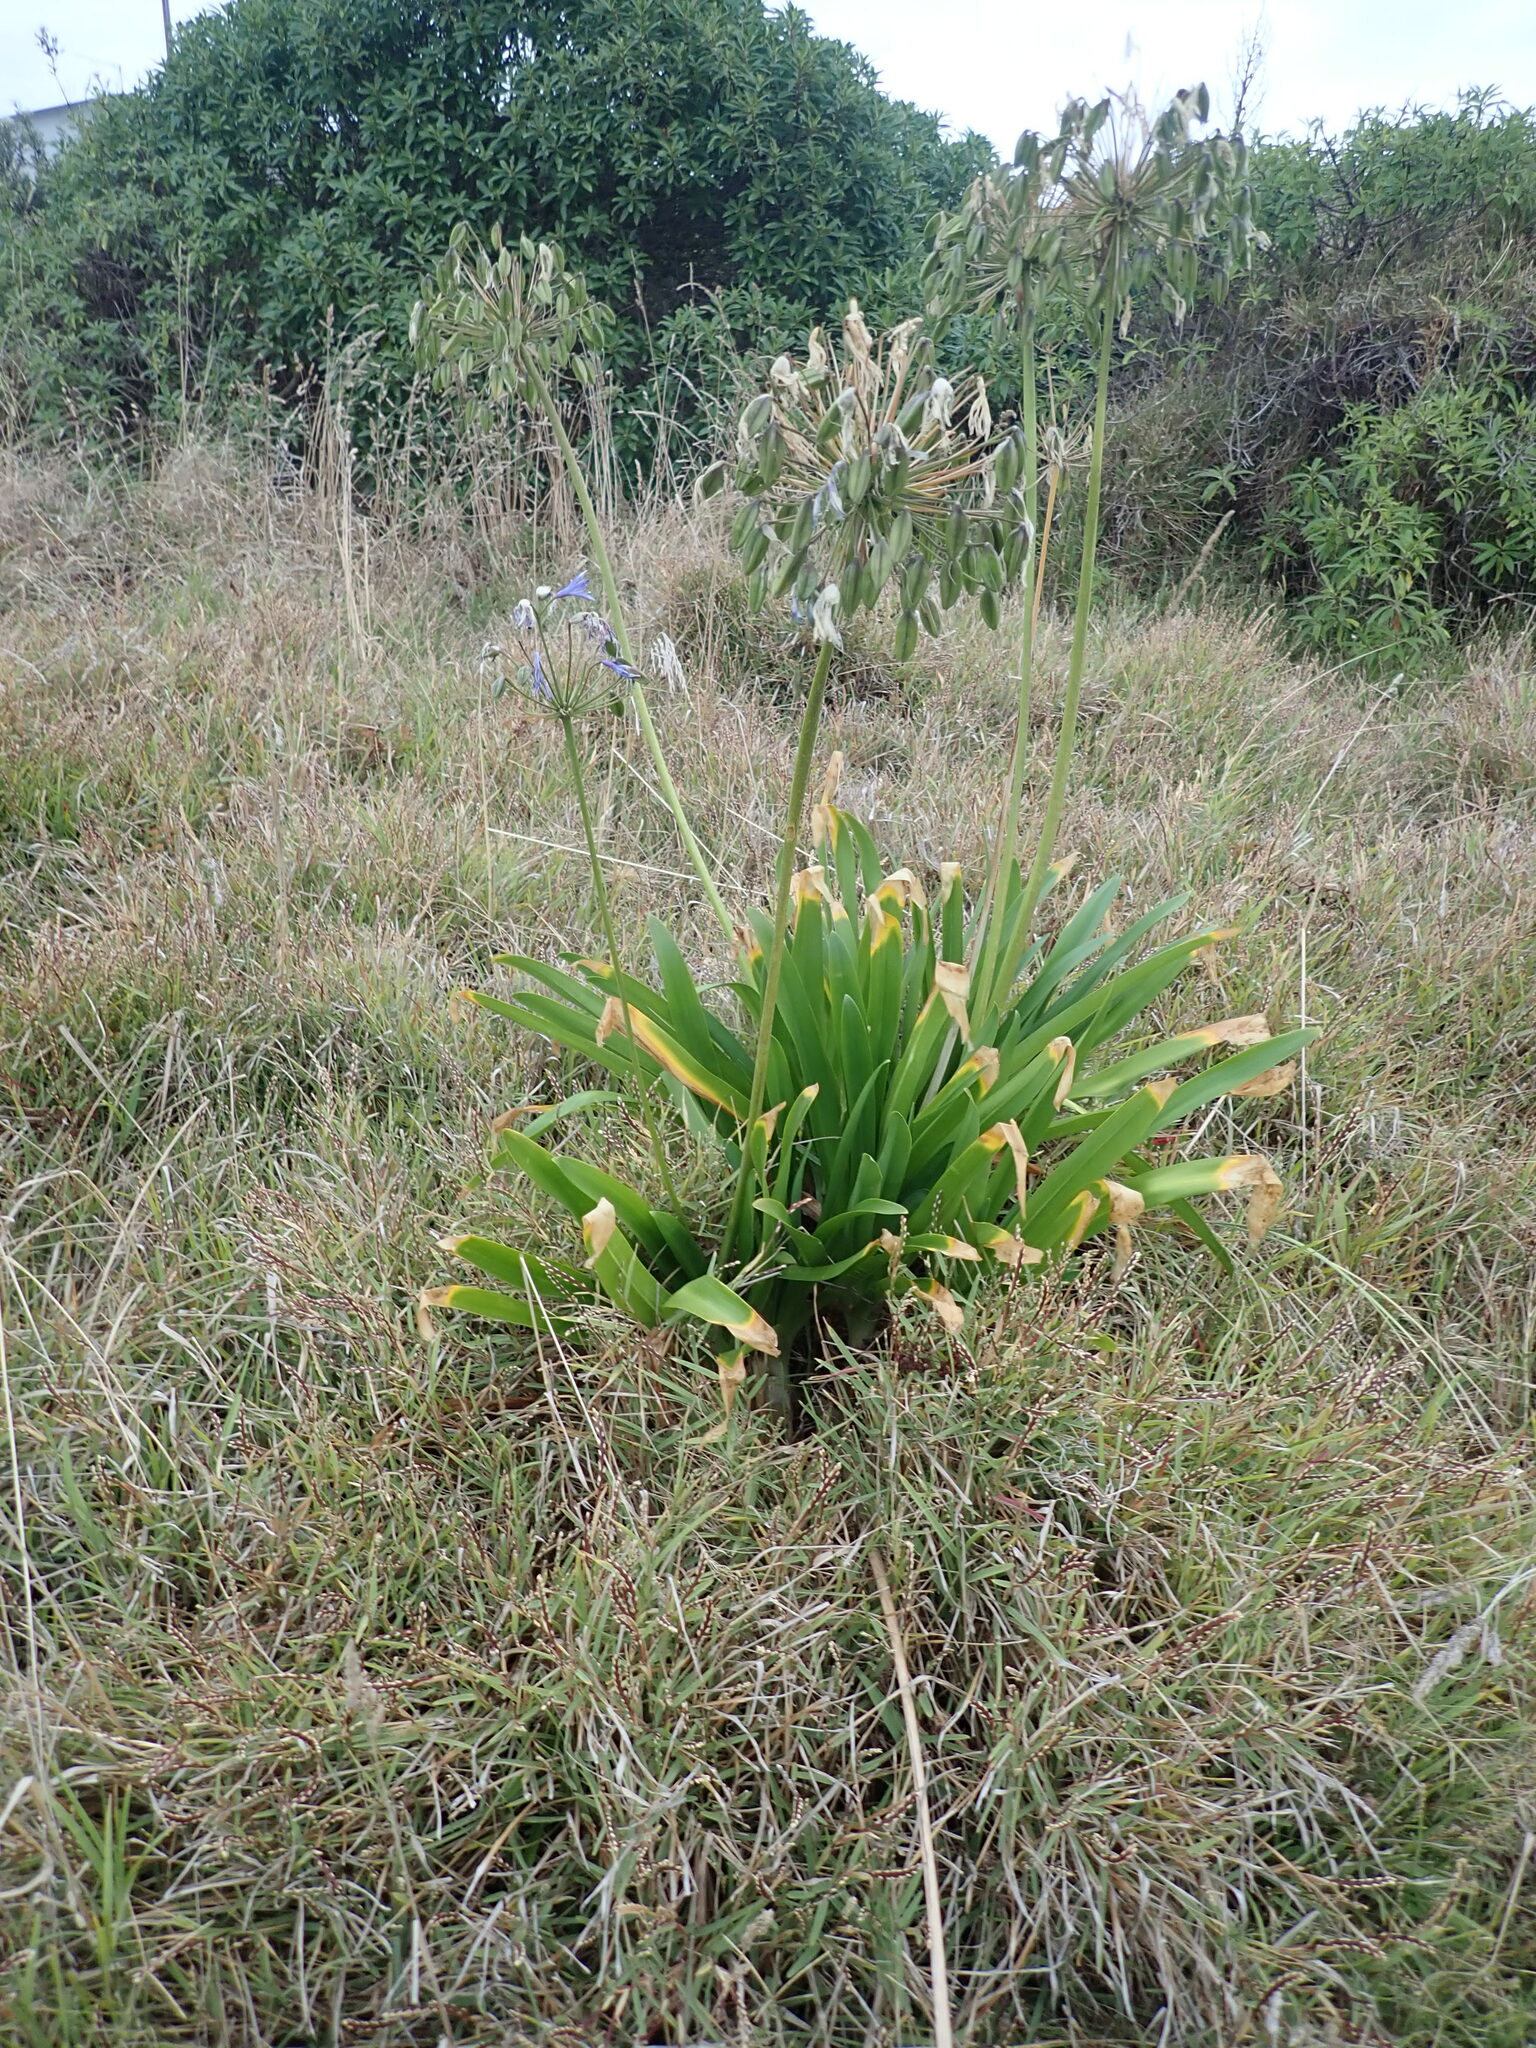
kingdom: Plantae
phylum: Tracheophyta
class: Liliopsida
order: Asparagales
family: Amaryllidaceae
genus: Agapanthus
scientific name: Agapanthus praecox
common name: African-lily
